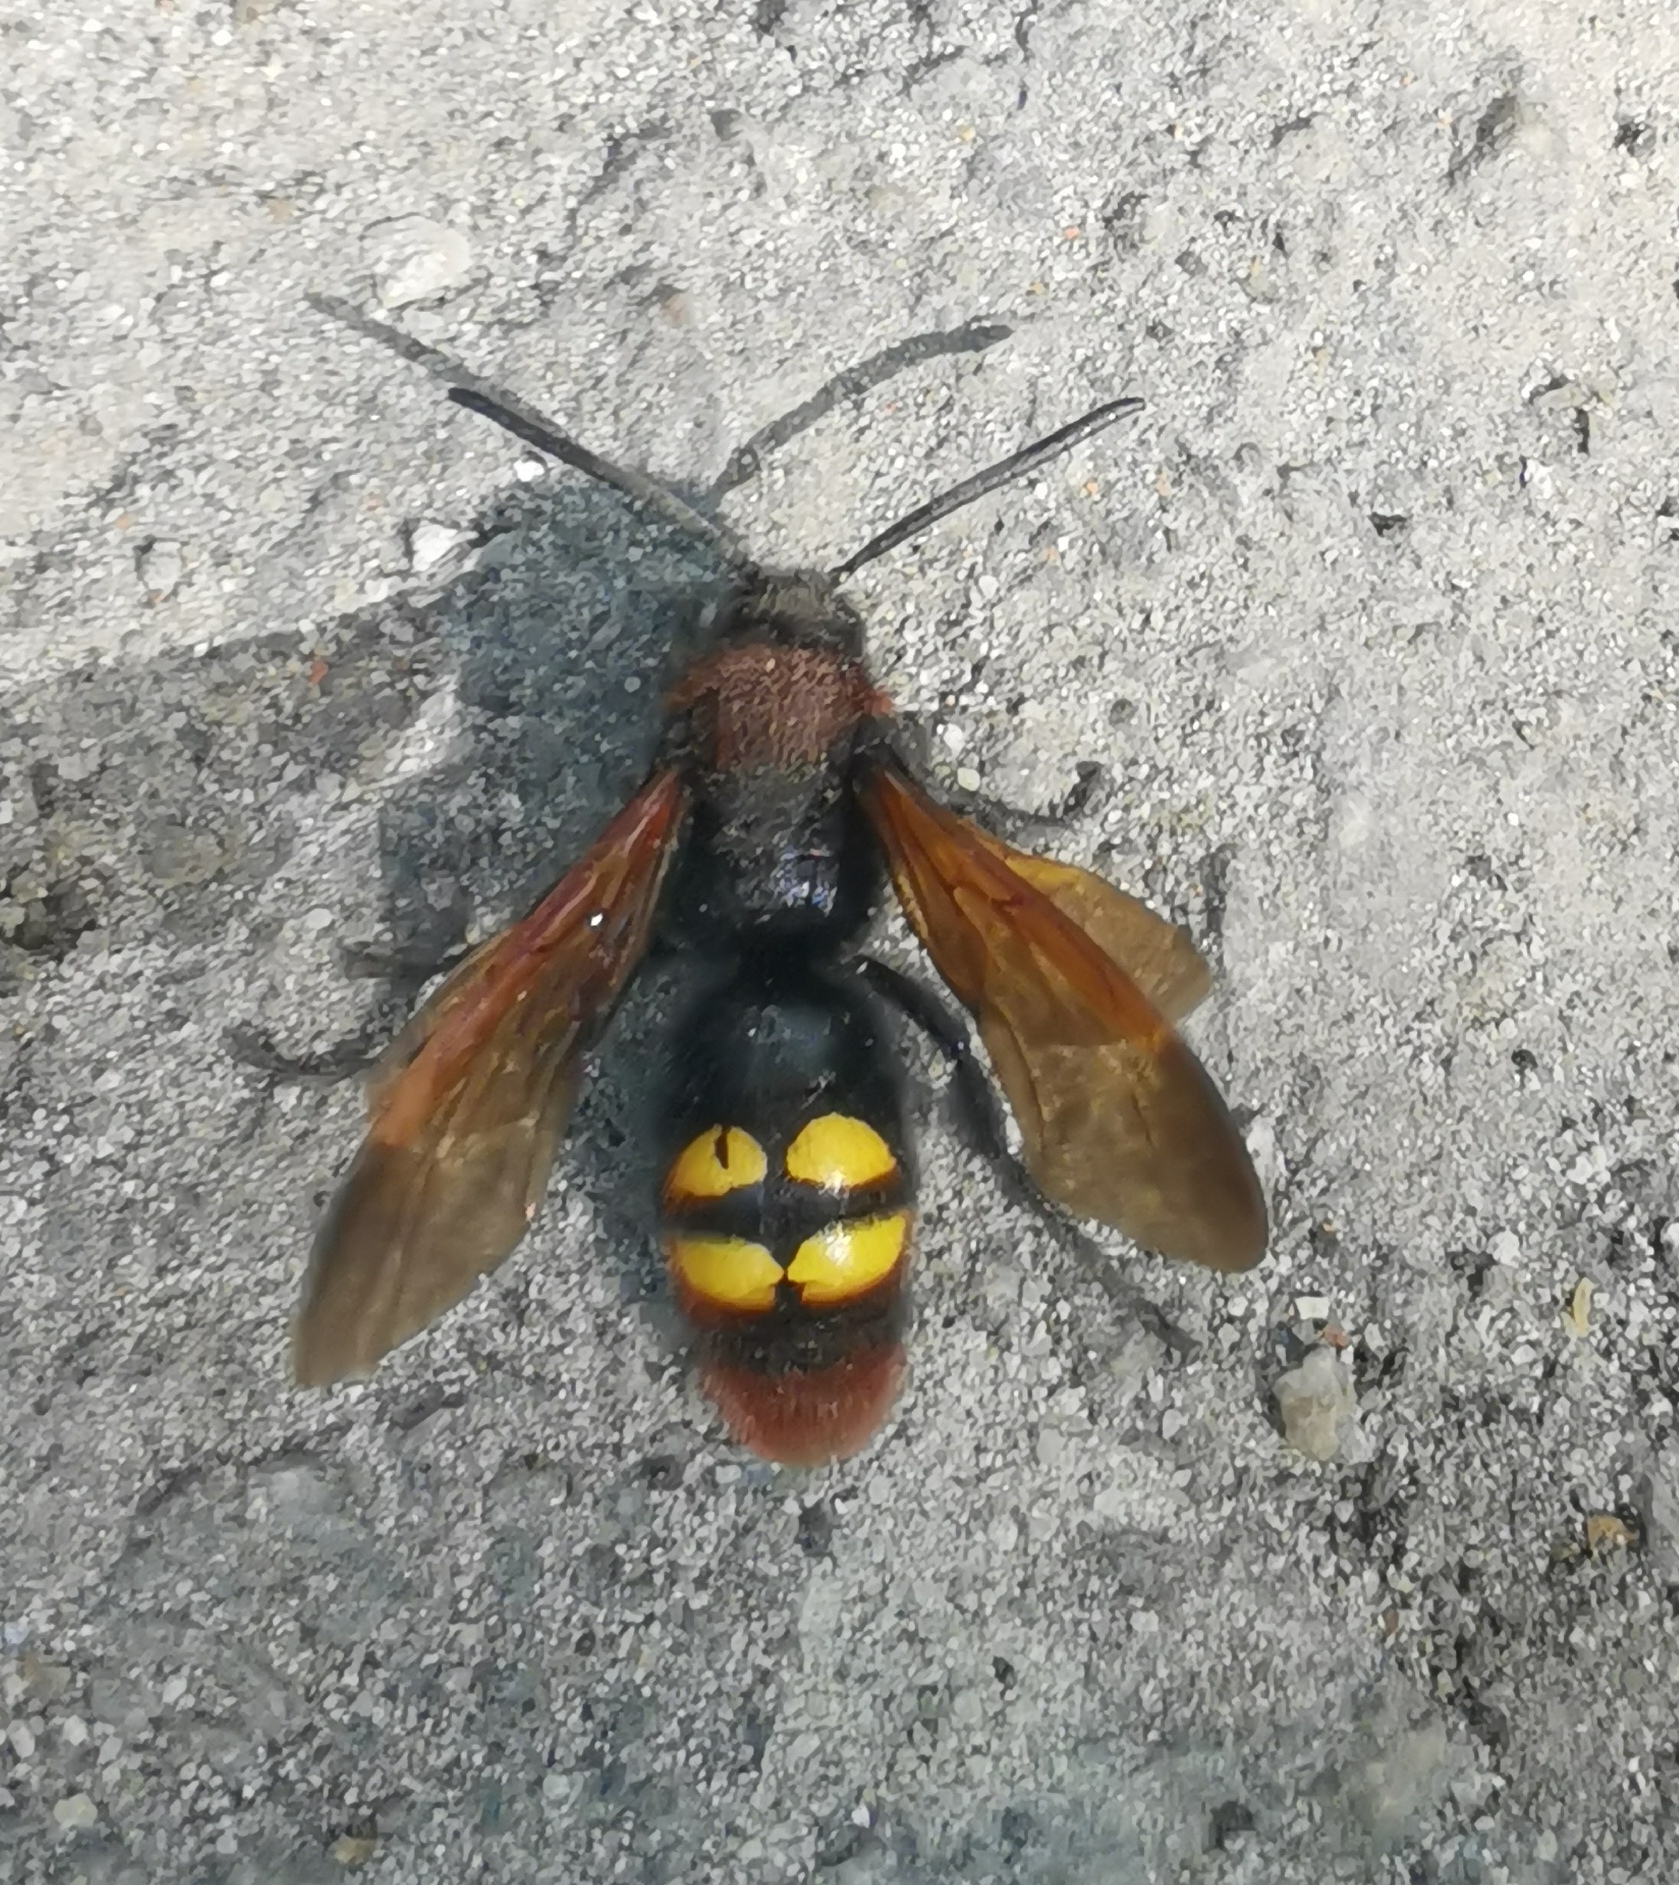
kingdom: Animalia
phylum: Arthropoda
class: Insecta
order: Hymenoptera
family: Scoliidae
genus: Megascolia
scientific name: Megascolia maculata
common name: Mammoth wasp
